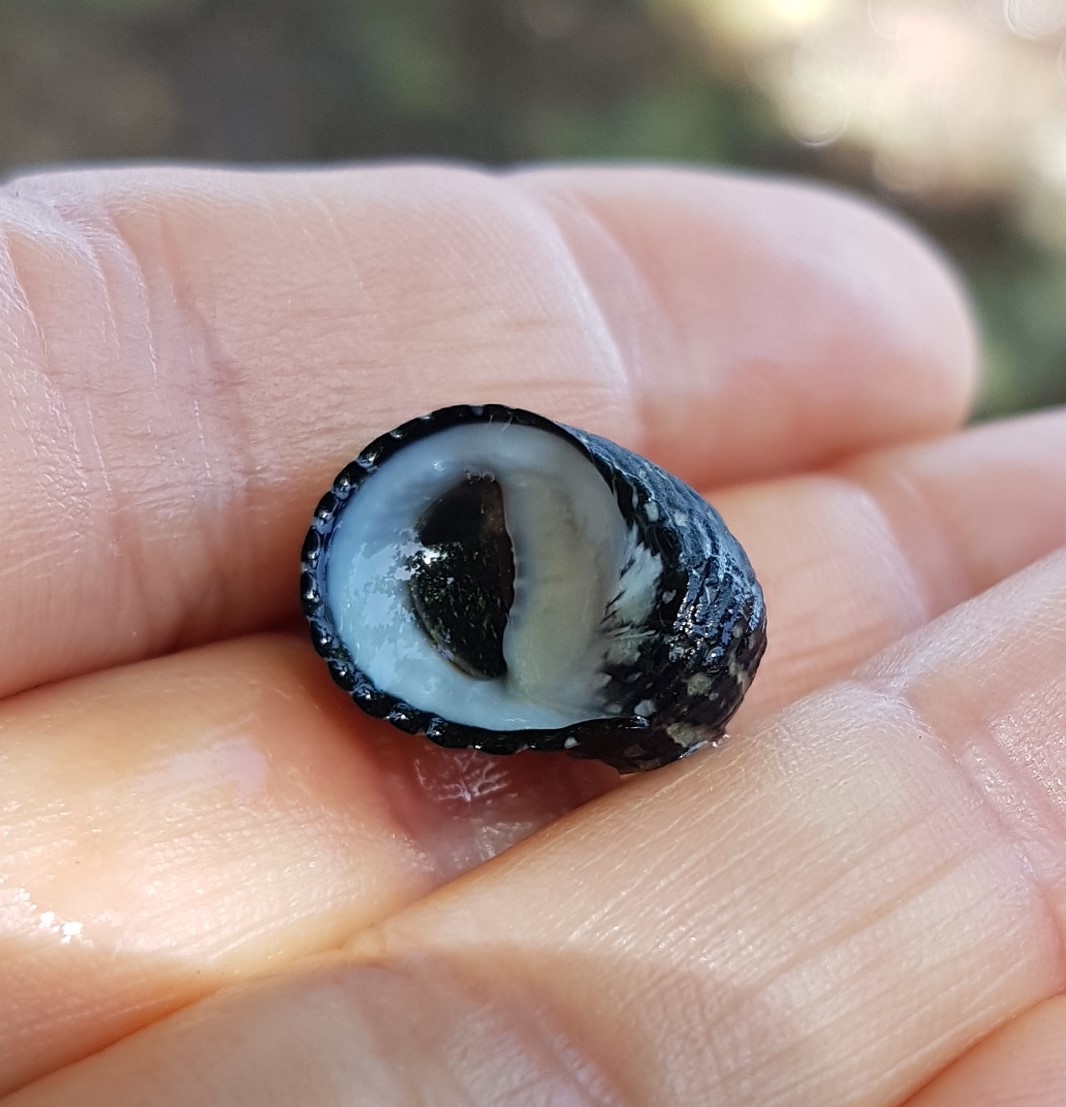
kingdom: Animalia
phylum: Mollusca
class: Gastropoda
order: Cycloneritida
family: Neritidae
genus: Nerita
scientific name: Nerita tessellata
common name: Checkered nerite
